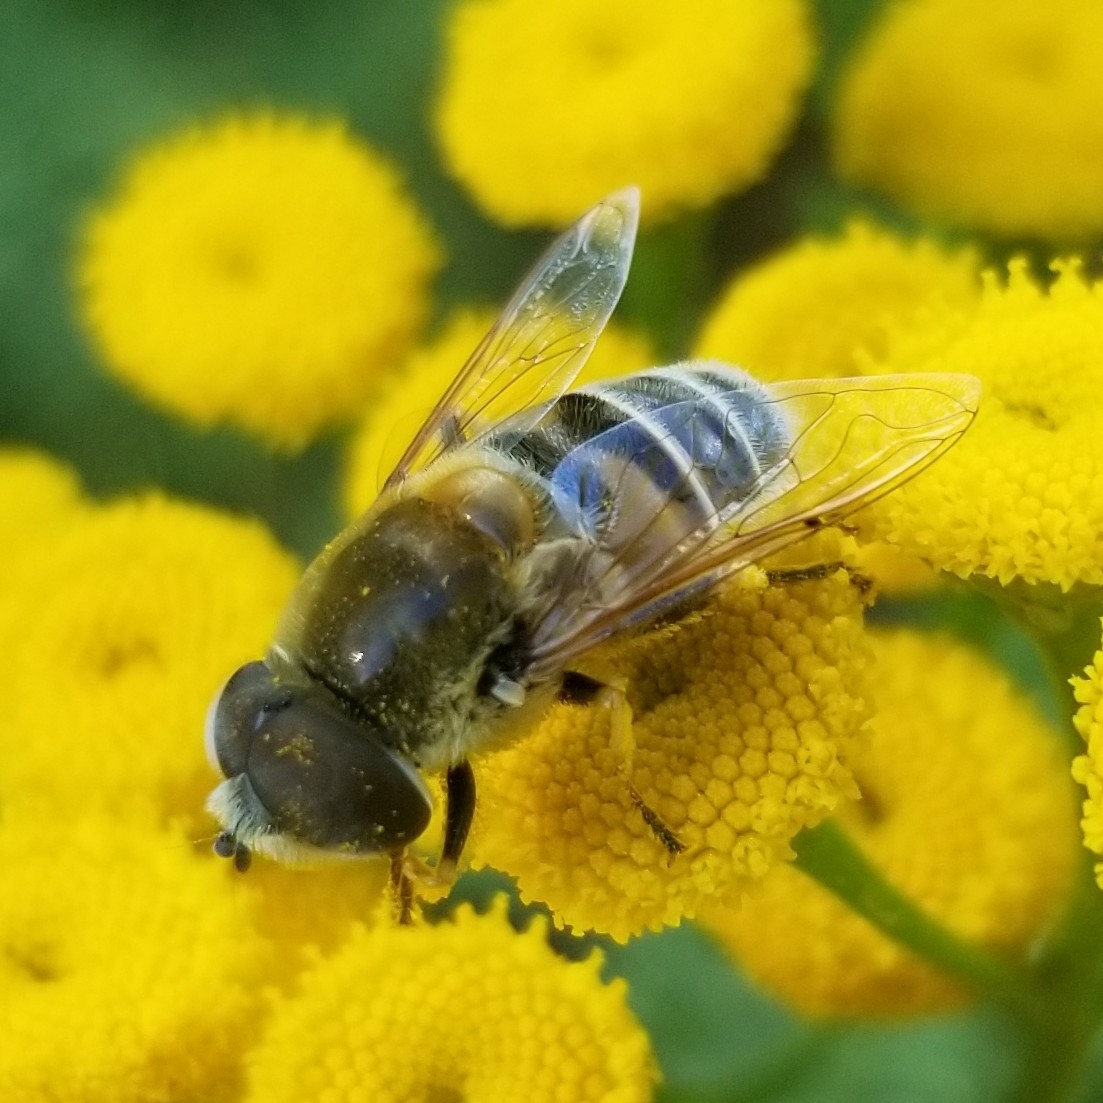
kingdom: Animalia
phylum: Arthropoda
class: Insecta
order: Diptera
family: Syrphidae
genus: Eristalis
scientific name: Eristalis stipator
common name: Yellow-shouldered drone fly
